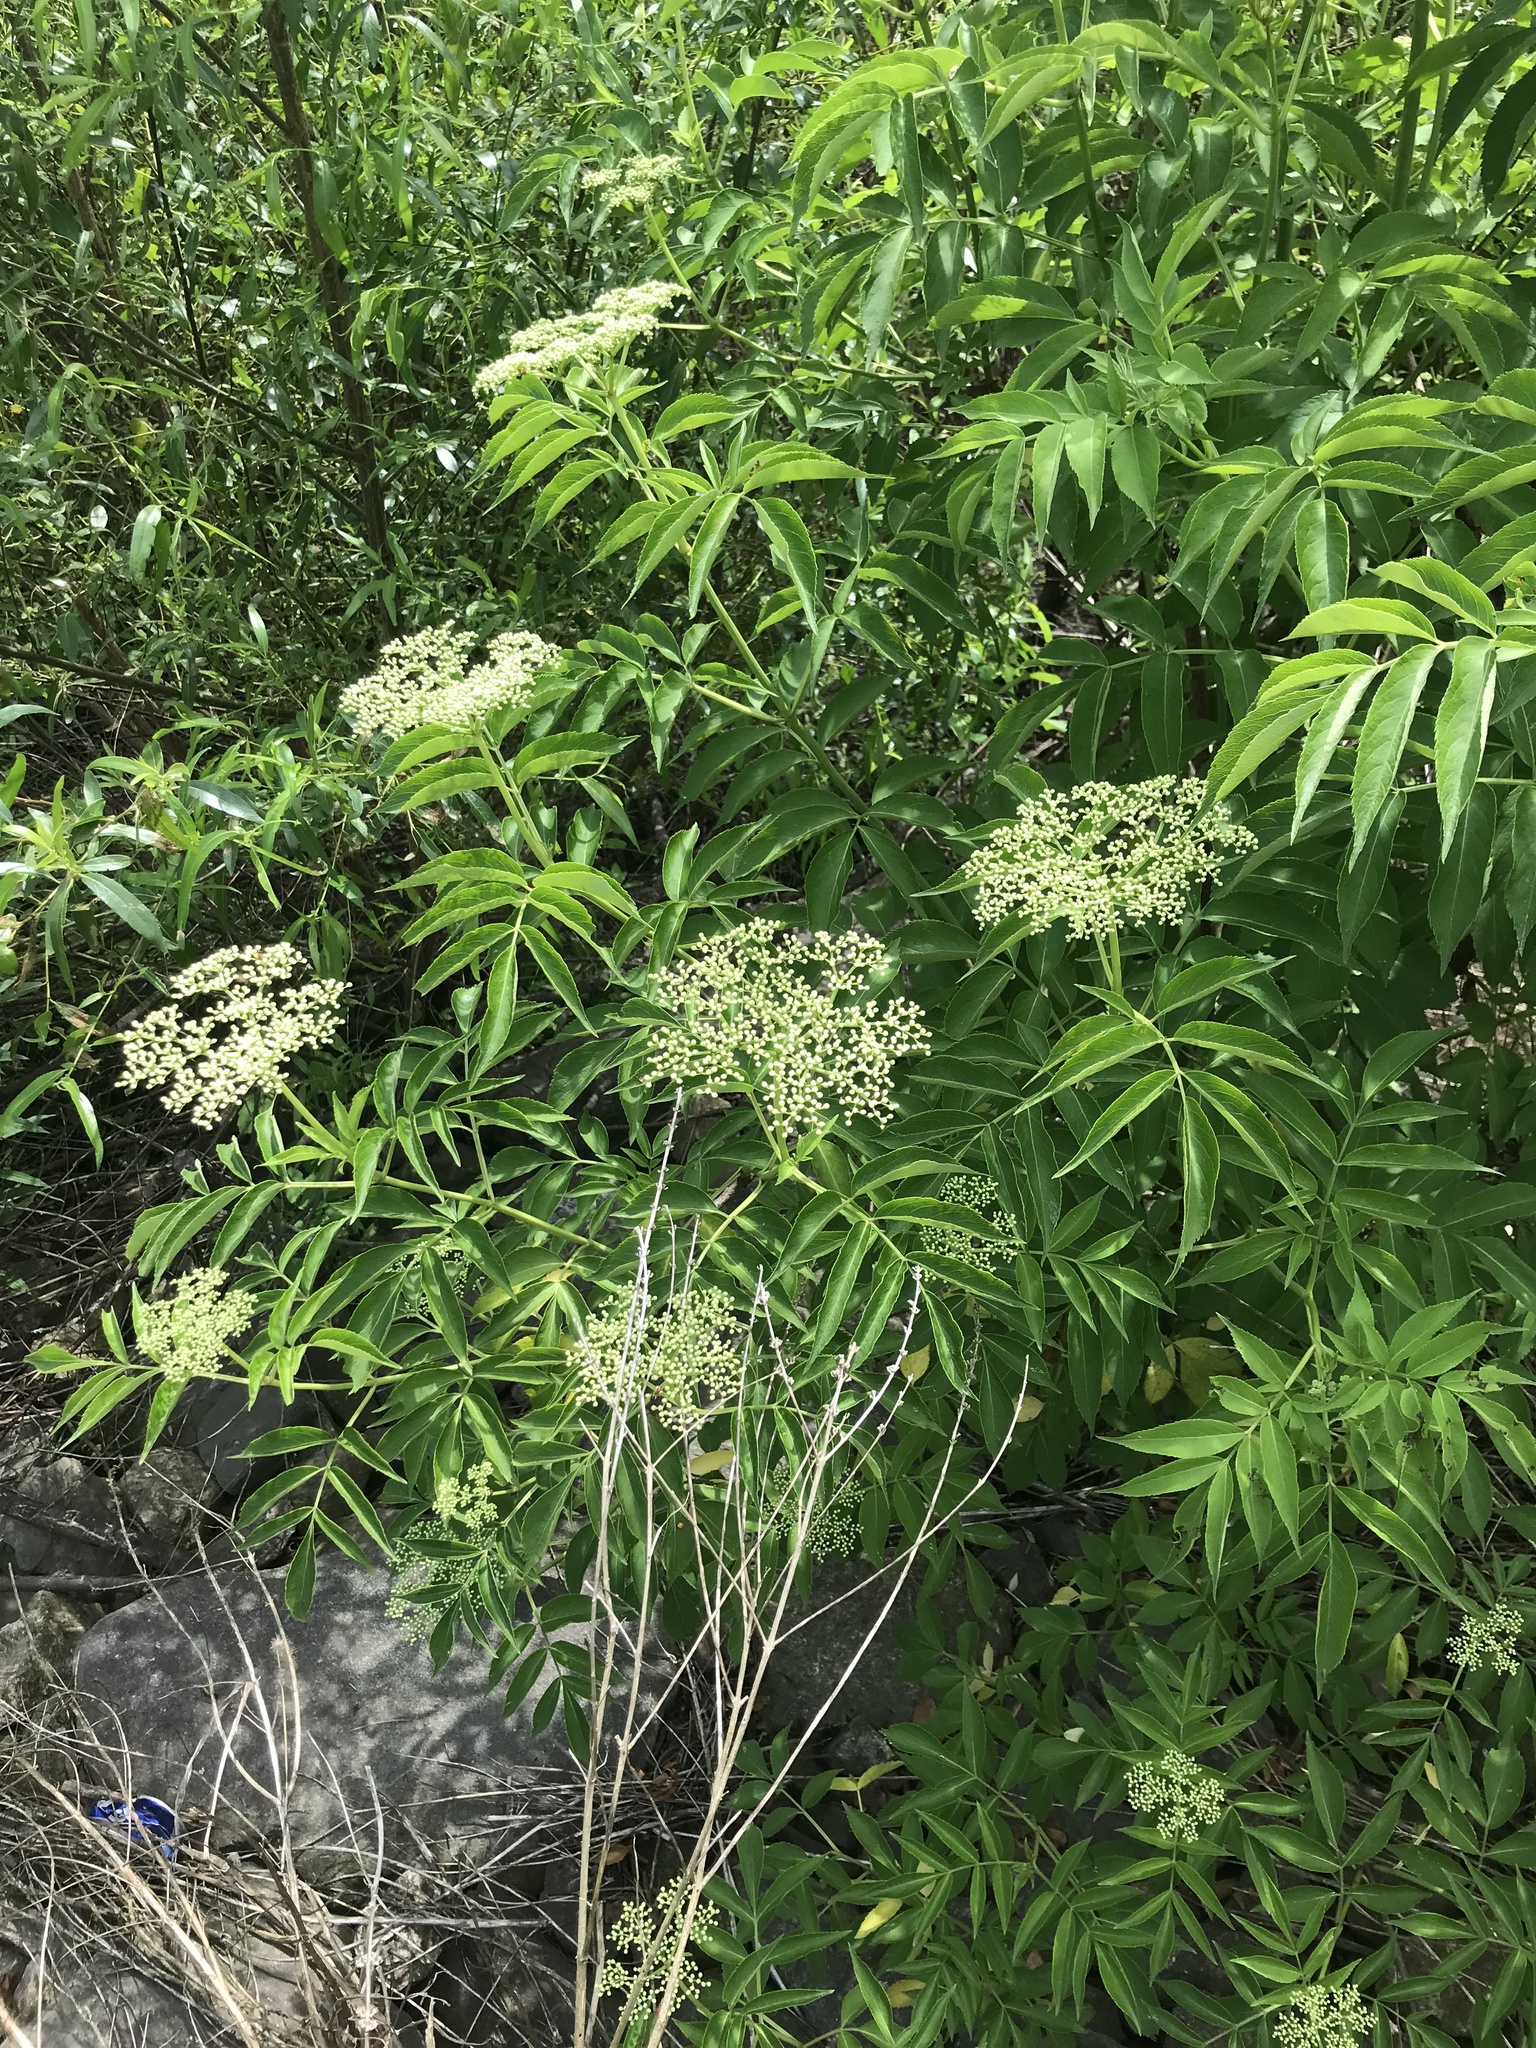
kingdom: Plantae
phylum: Tracheophyta
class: Magnoliopsida
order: Dipsacales
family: Viburnaceae
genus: Sambucus
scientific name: Sambucus canadensis
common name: American elder
